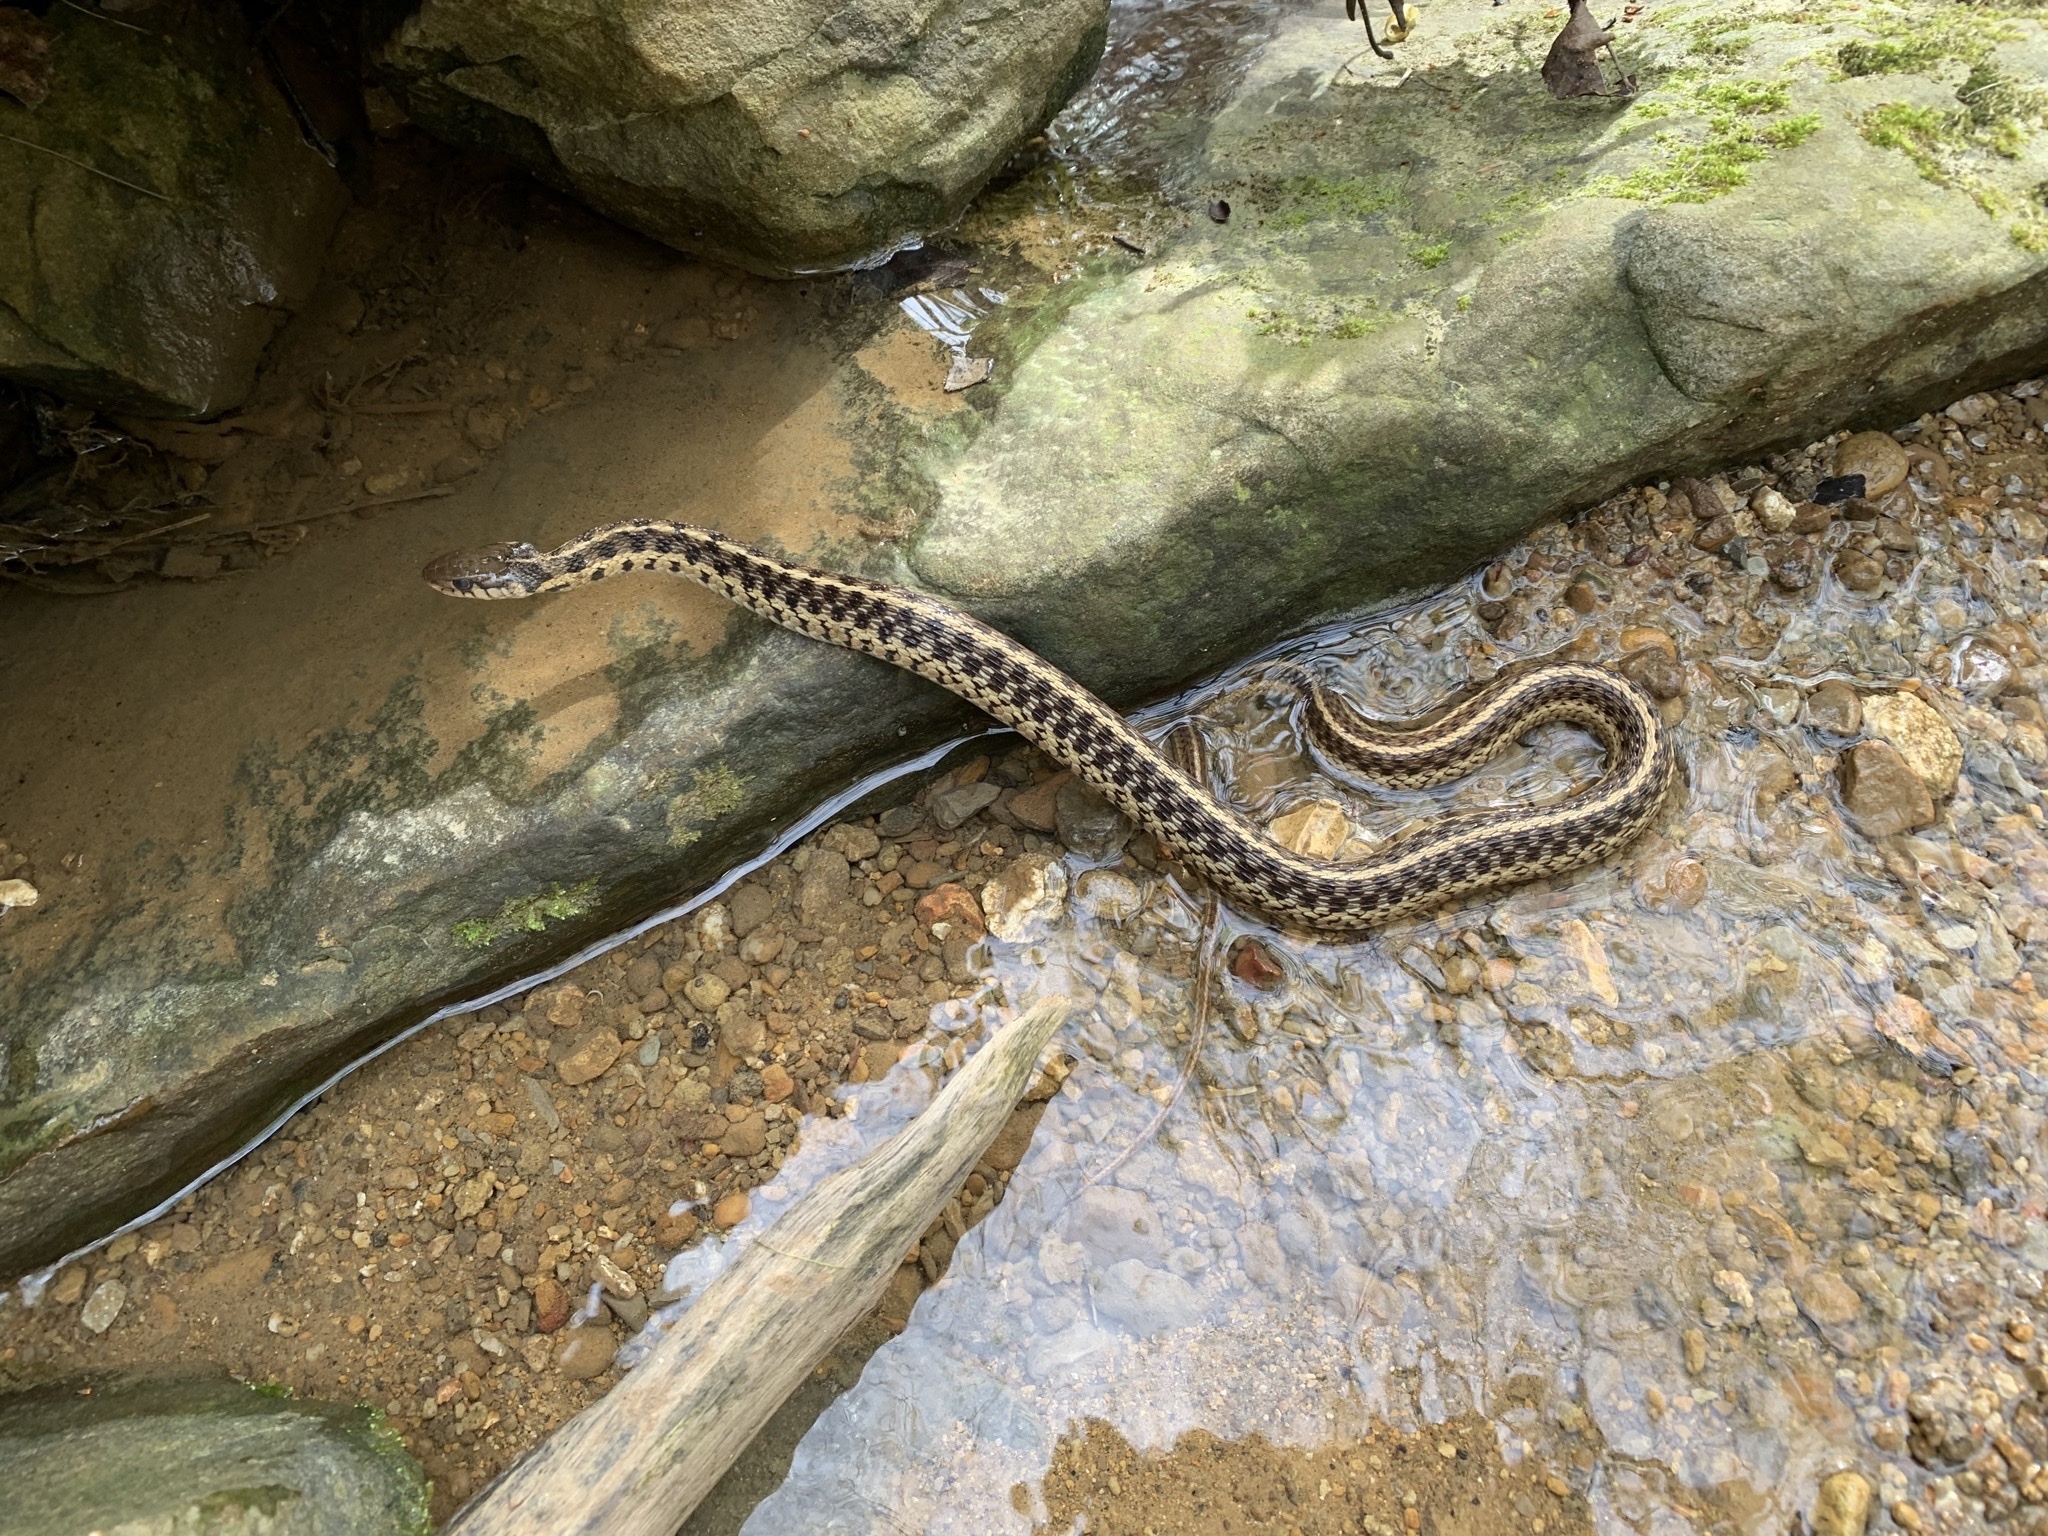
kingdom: Animalia
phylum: Chordata
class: Squamata
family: Colubridae
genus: Thamnophis
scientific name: Thamnophis sirtalis
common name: Common garter snake
